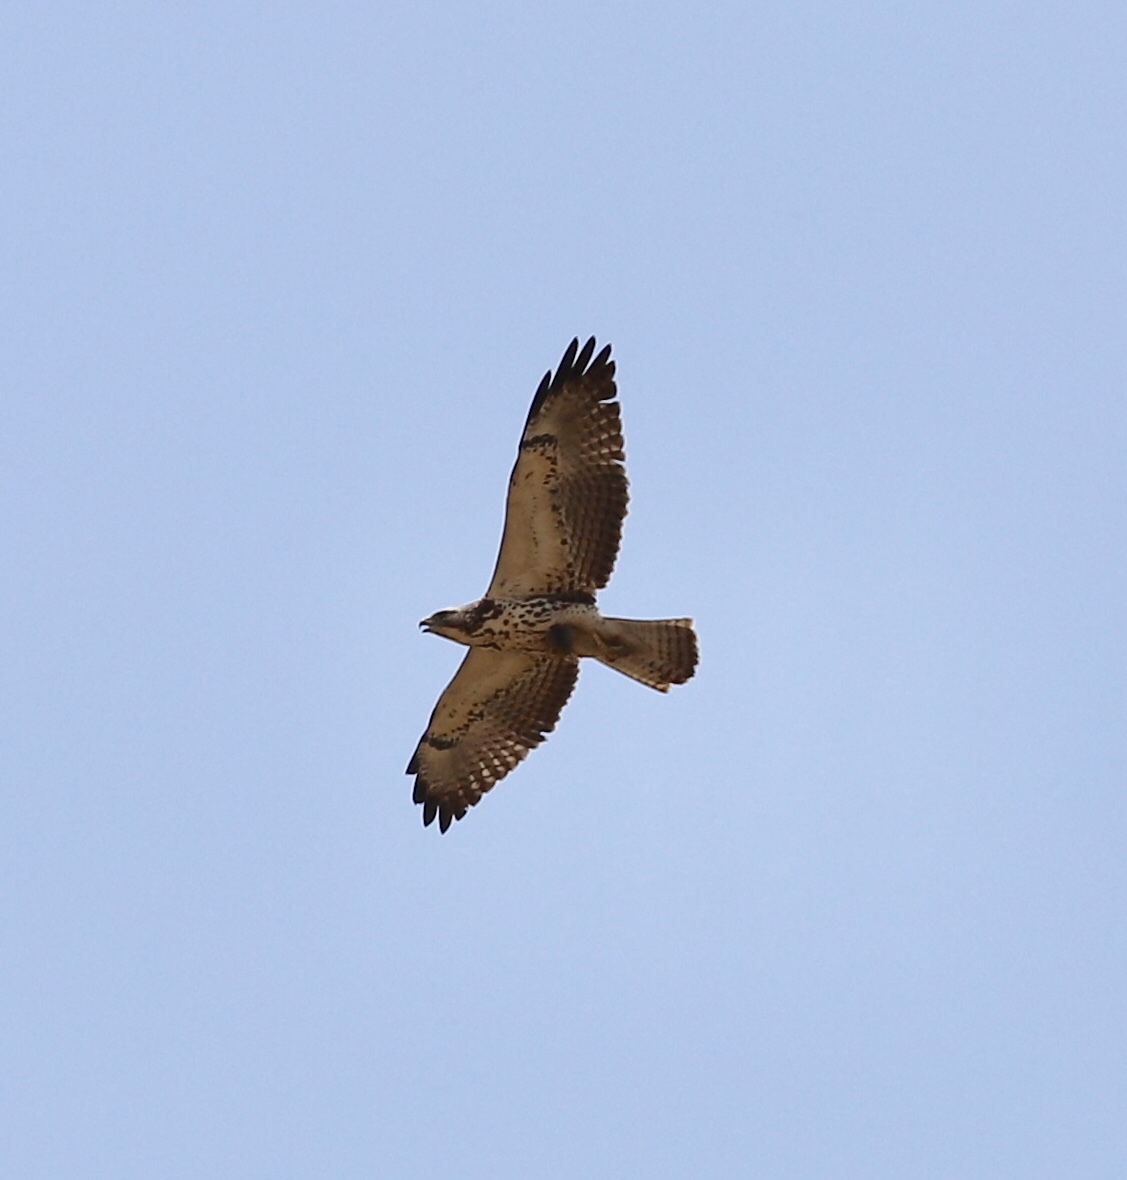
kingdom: Animalia
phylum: Chordata
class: Aves
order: Accipitriformes
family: Accipitridae
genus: Buteo
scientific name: Buteo swainsoni
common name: Swainson's hawk
